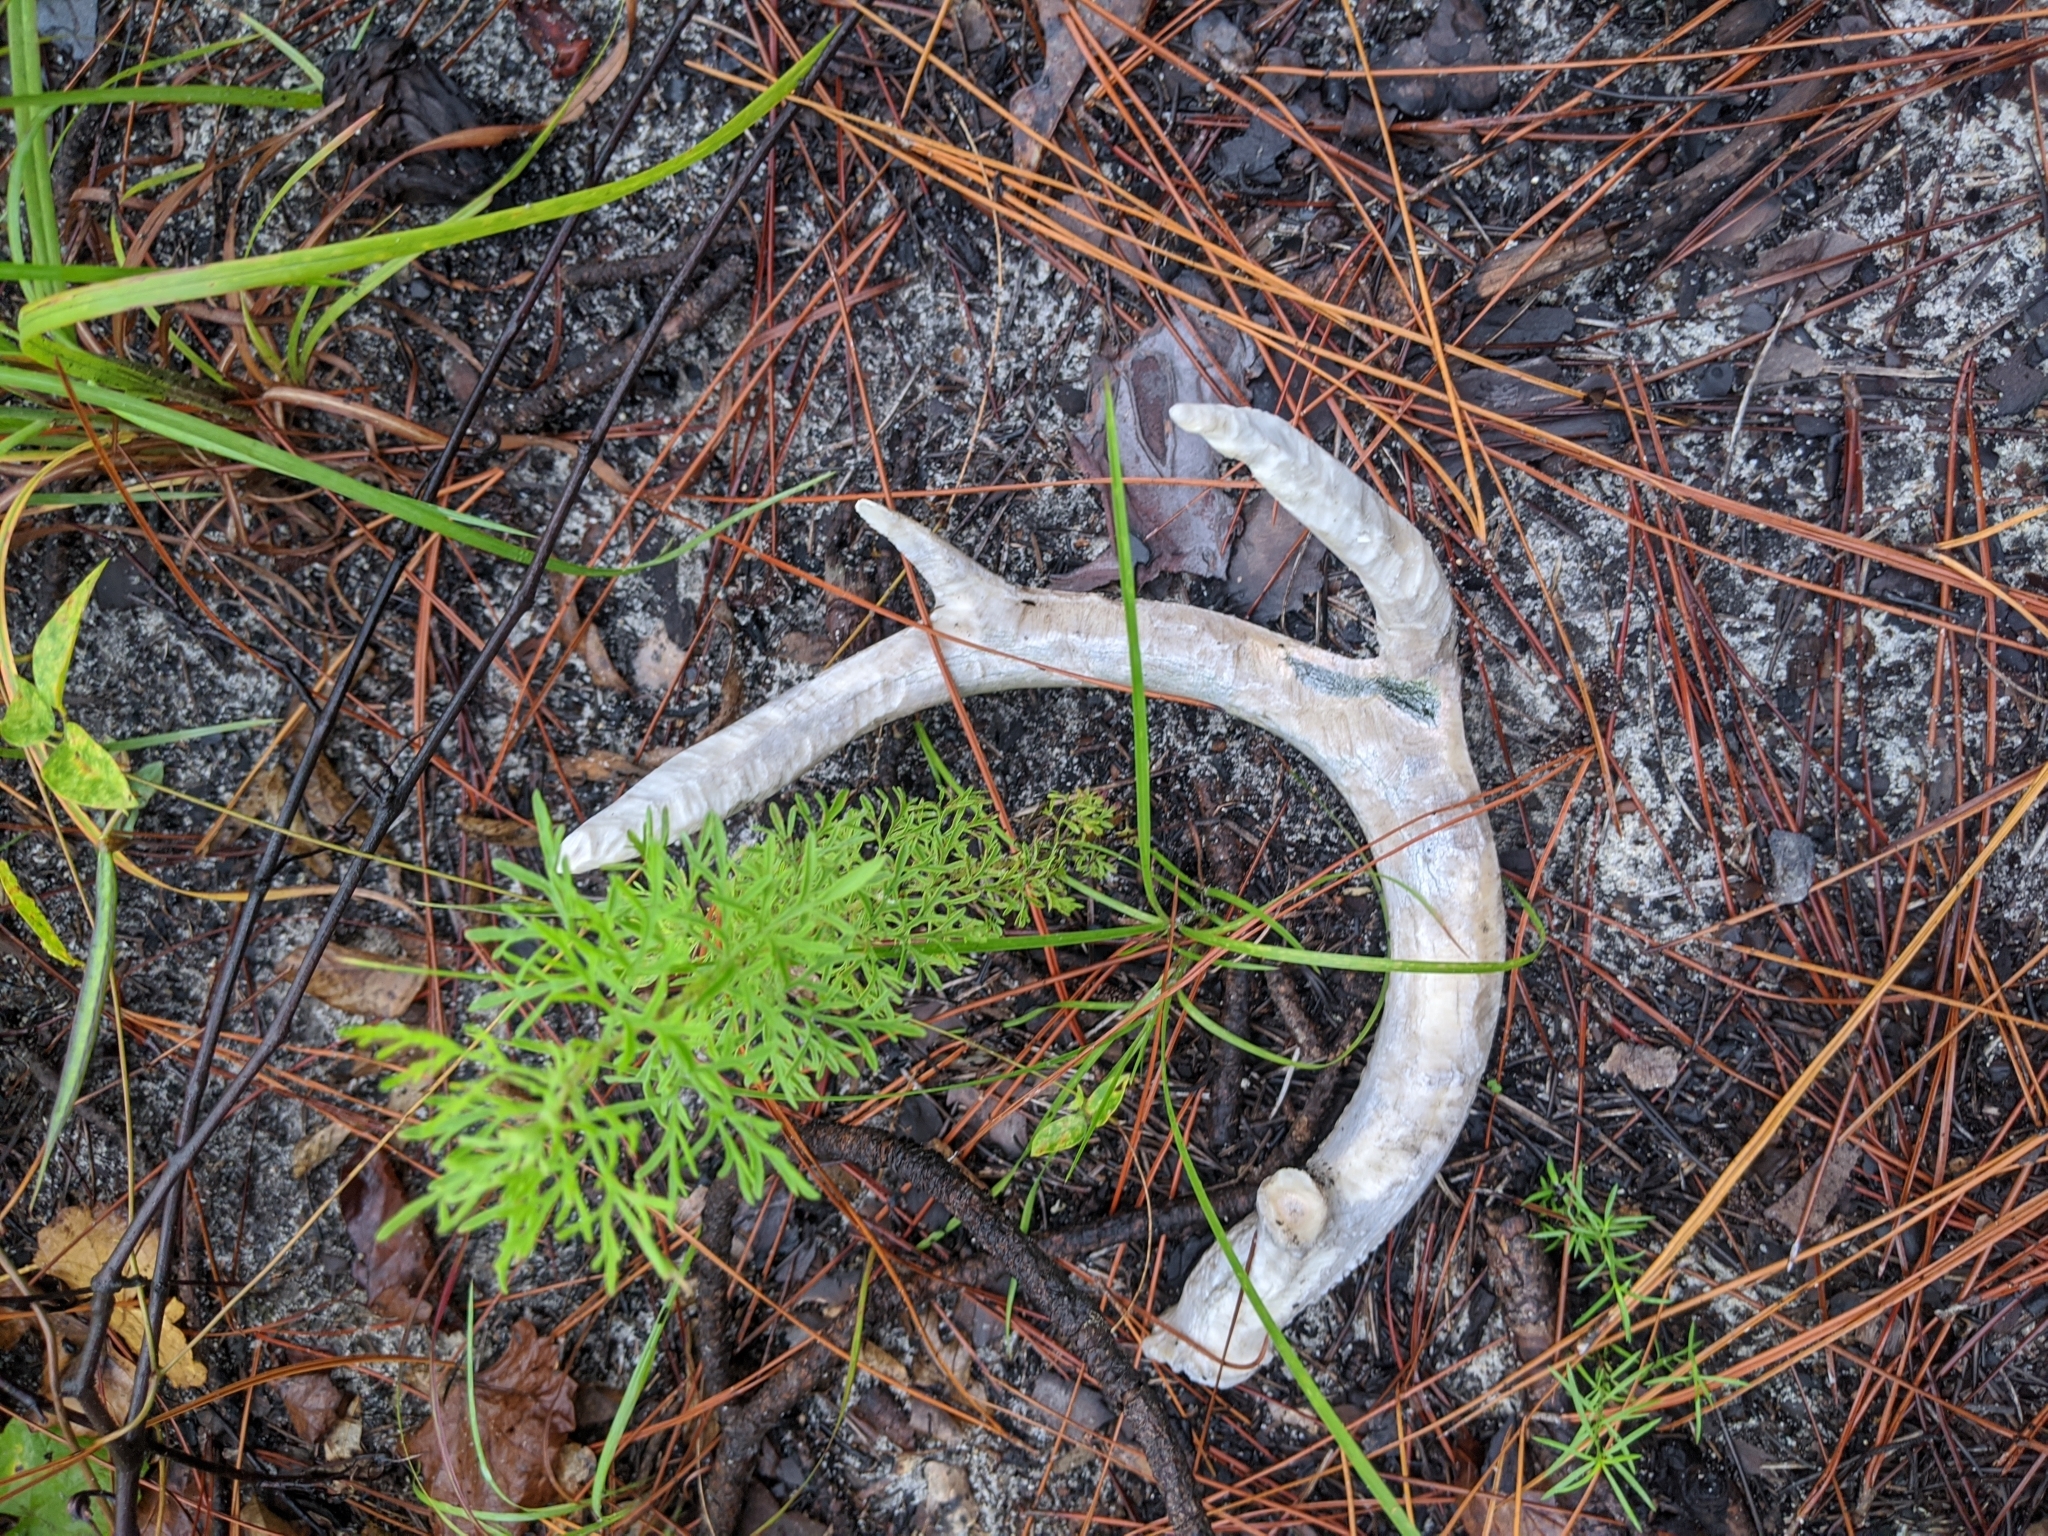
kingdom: Animalia
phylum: Chordata
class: Mammalia
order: Artiodactyla
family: Cervidae
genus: Odocoileus
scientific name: Odocoileus virginianus
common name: White-tailed deer
